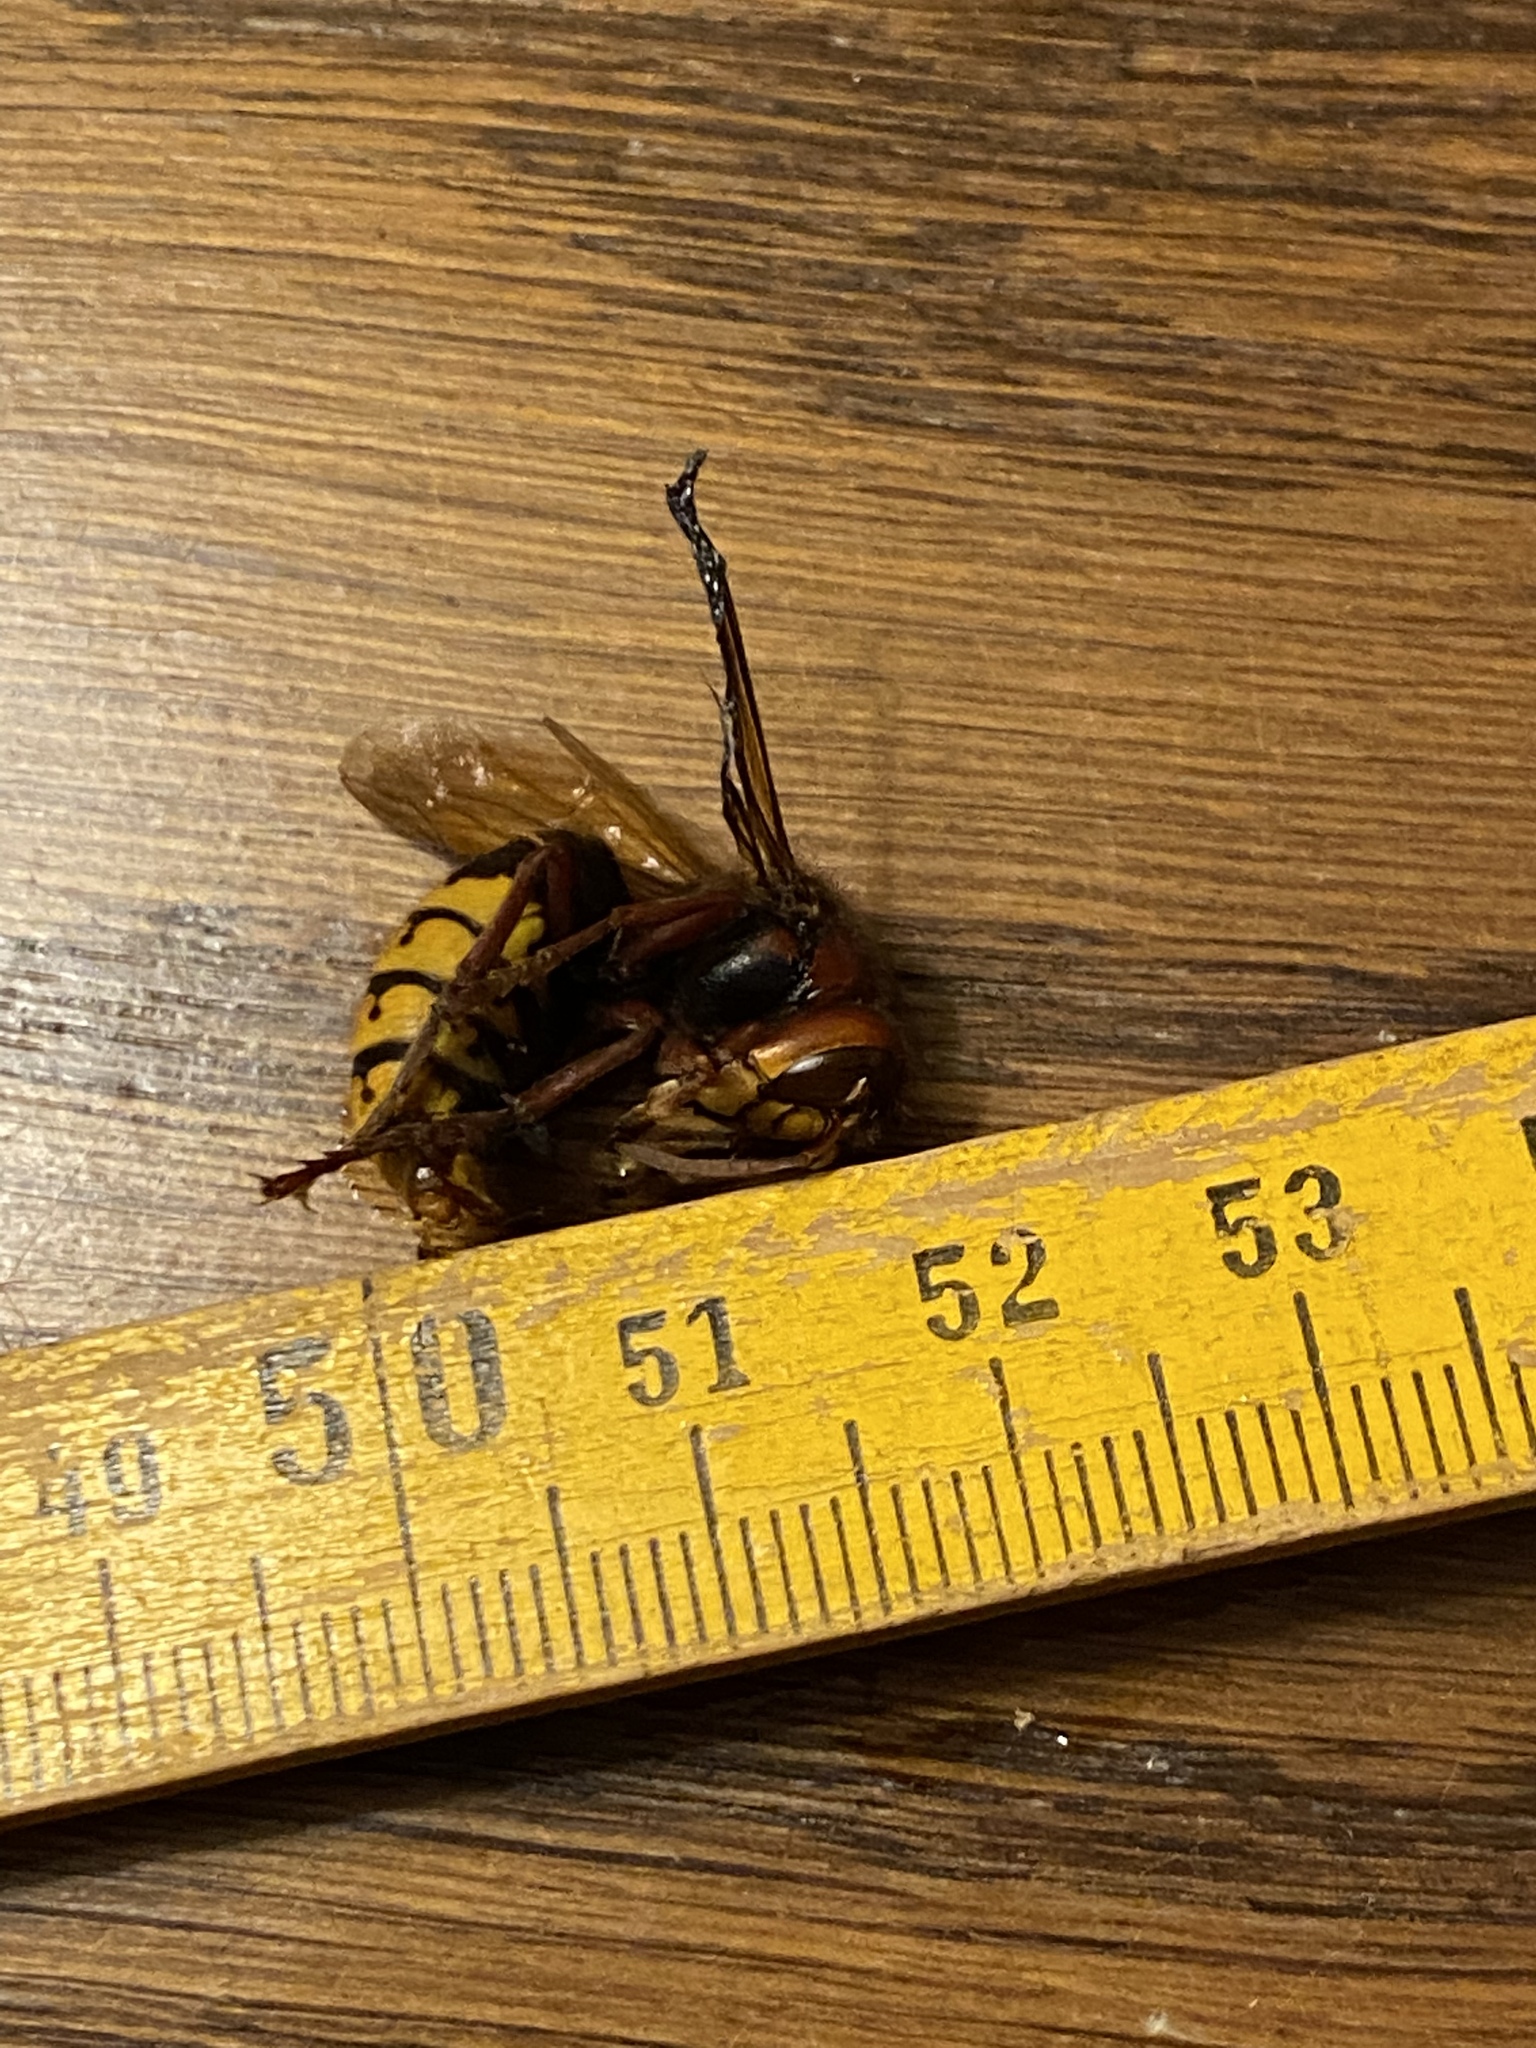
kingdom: Animalia
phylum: Arthropoda
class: Insecta
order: Hymenoptera
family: Vespidae
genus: Vespa
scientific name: Vespa crabro
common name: Hornet
